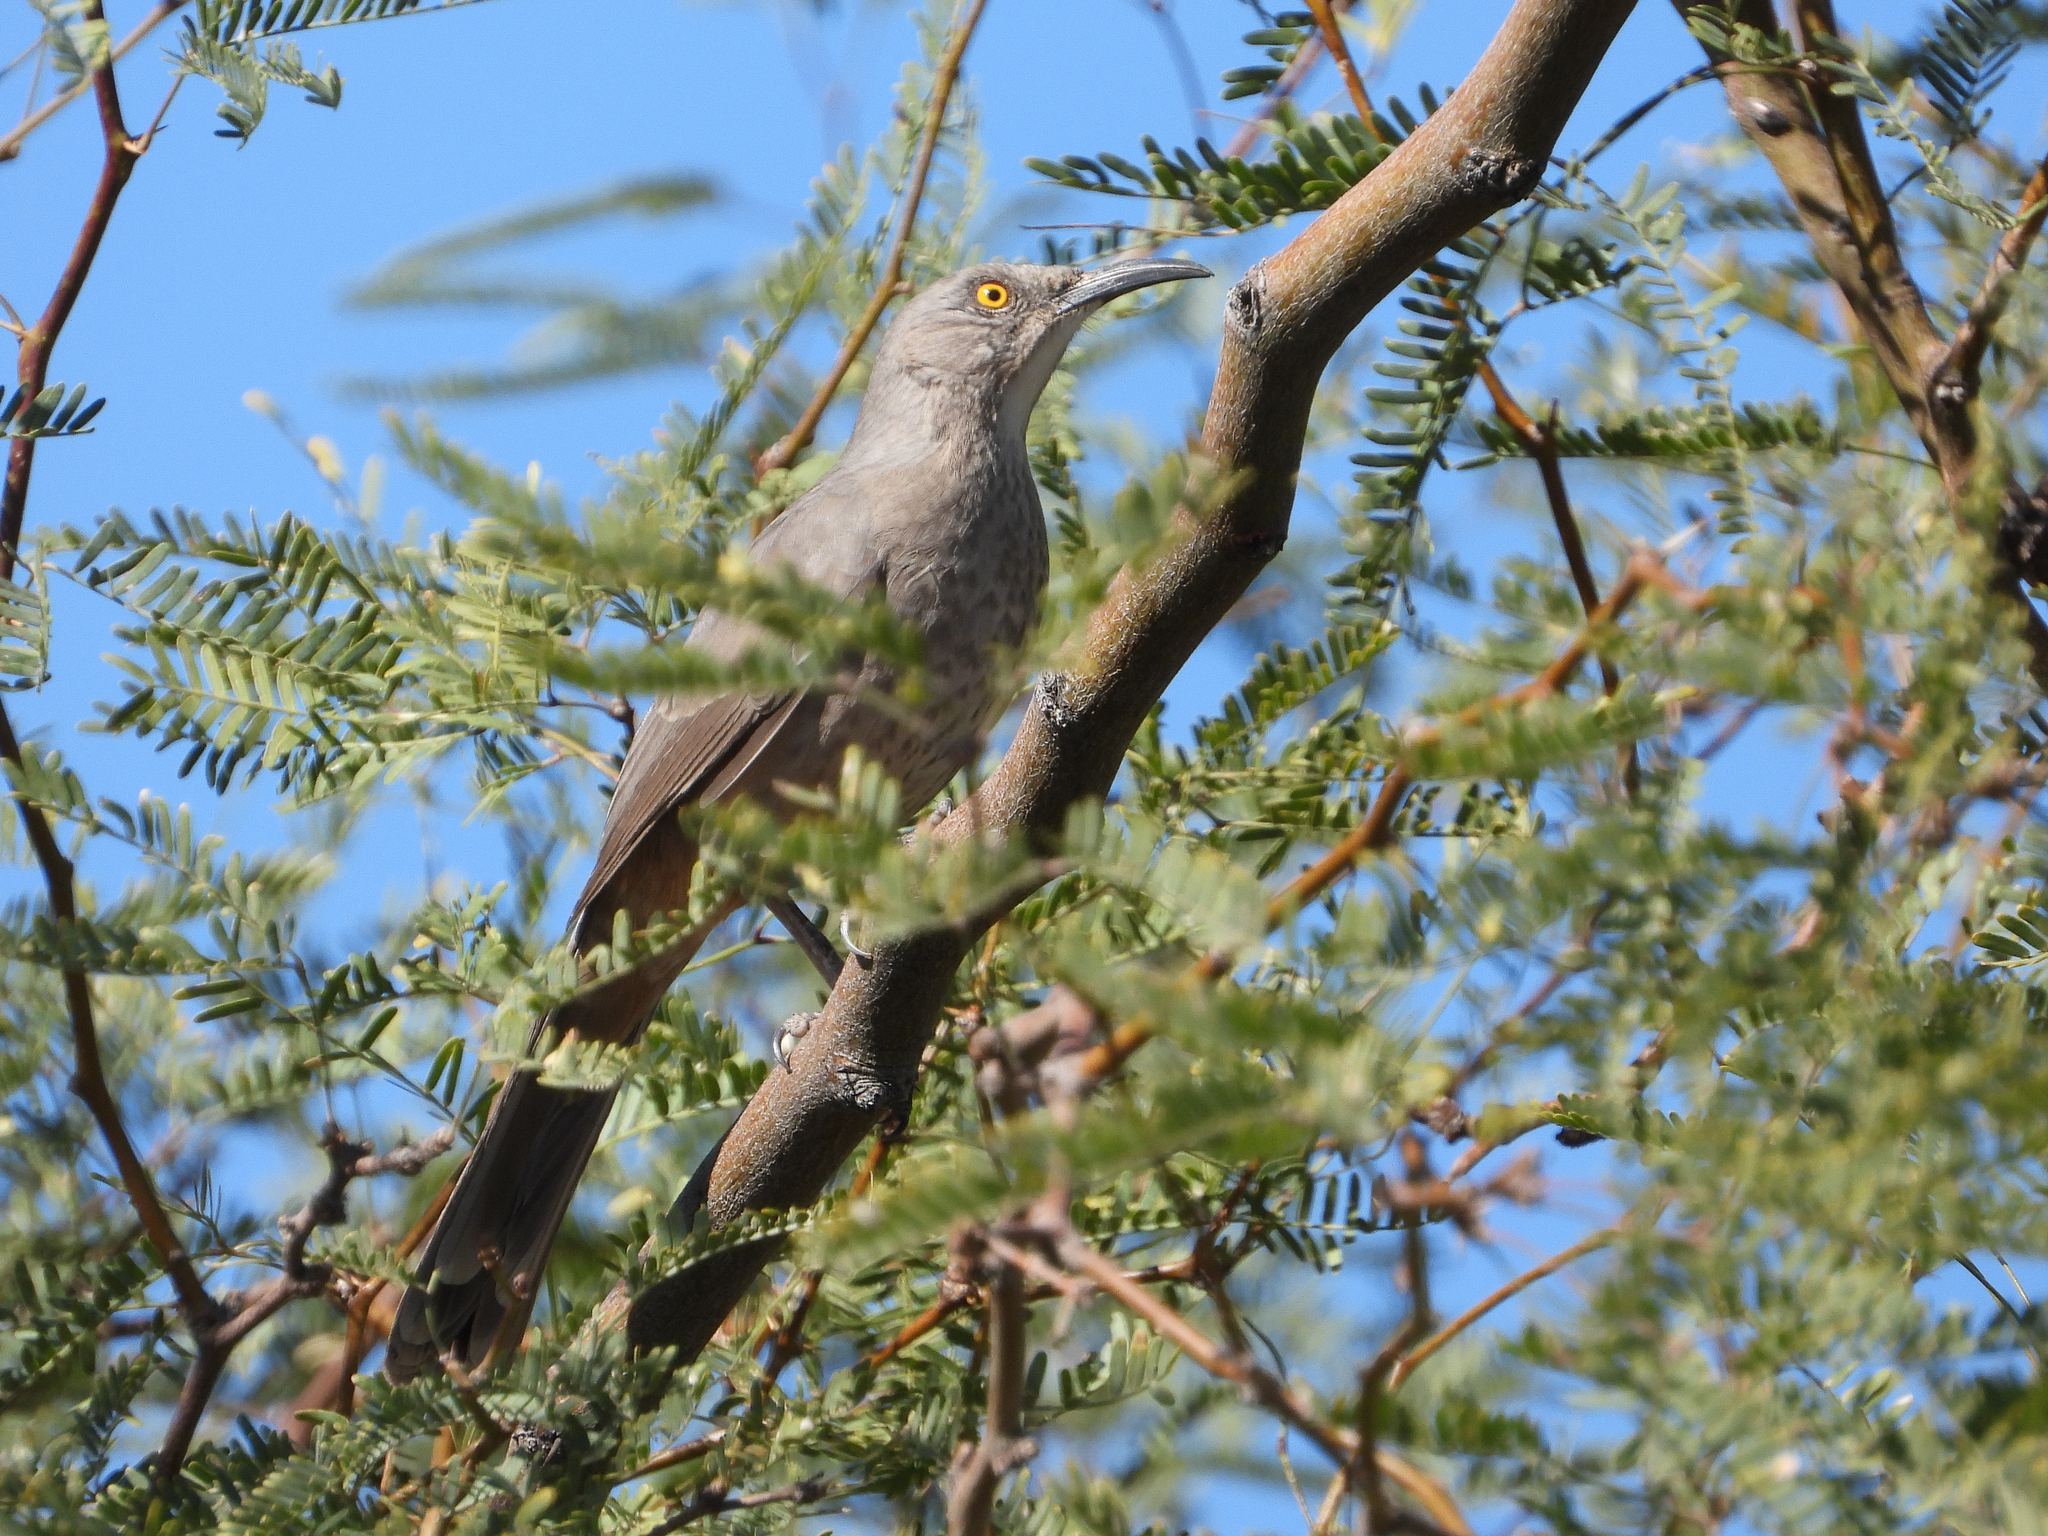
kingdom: Animalia
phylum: Chordata
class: Aves
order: Passeriformes
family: Mimidae
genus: Toxostoma
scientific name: Toxostoma curvirostre
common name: Curve-billed thrasher
